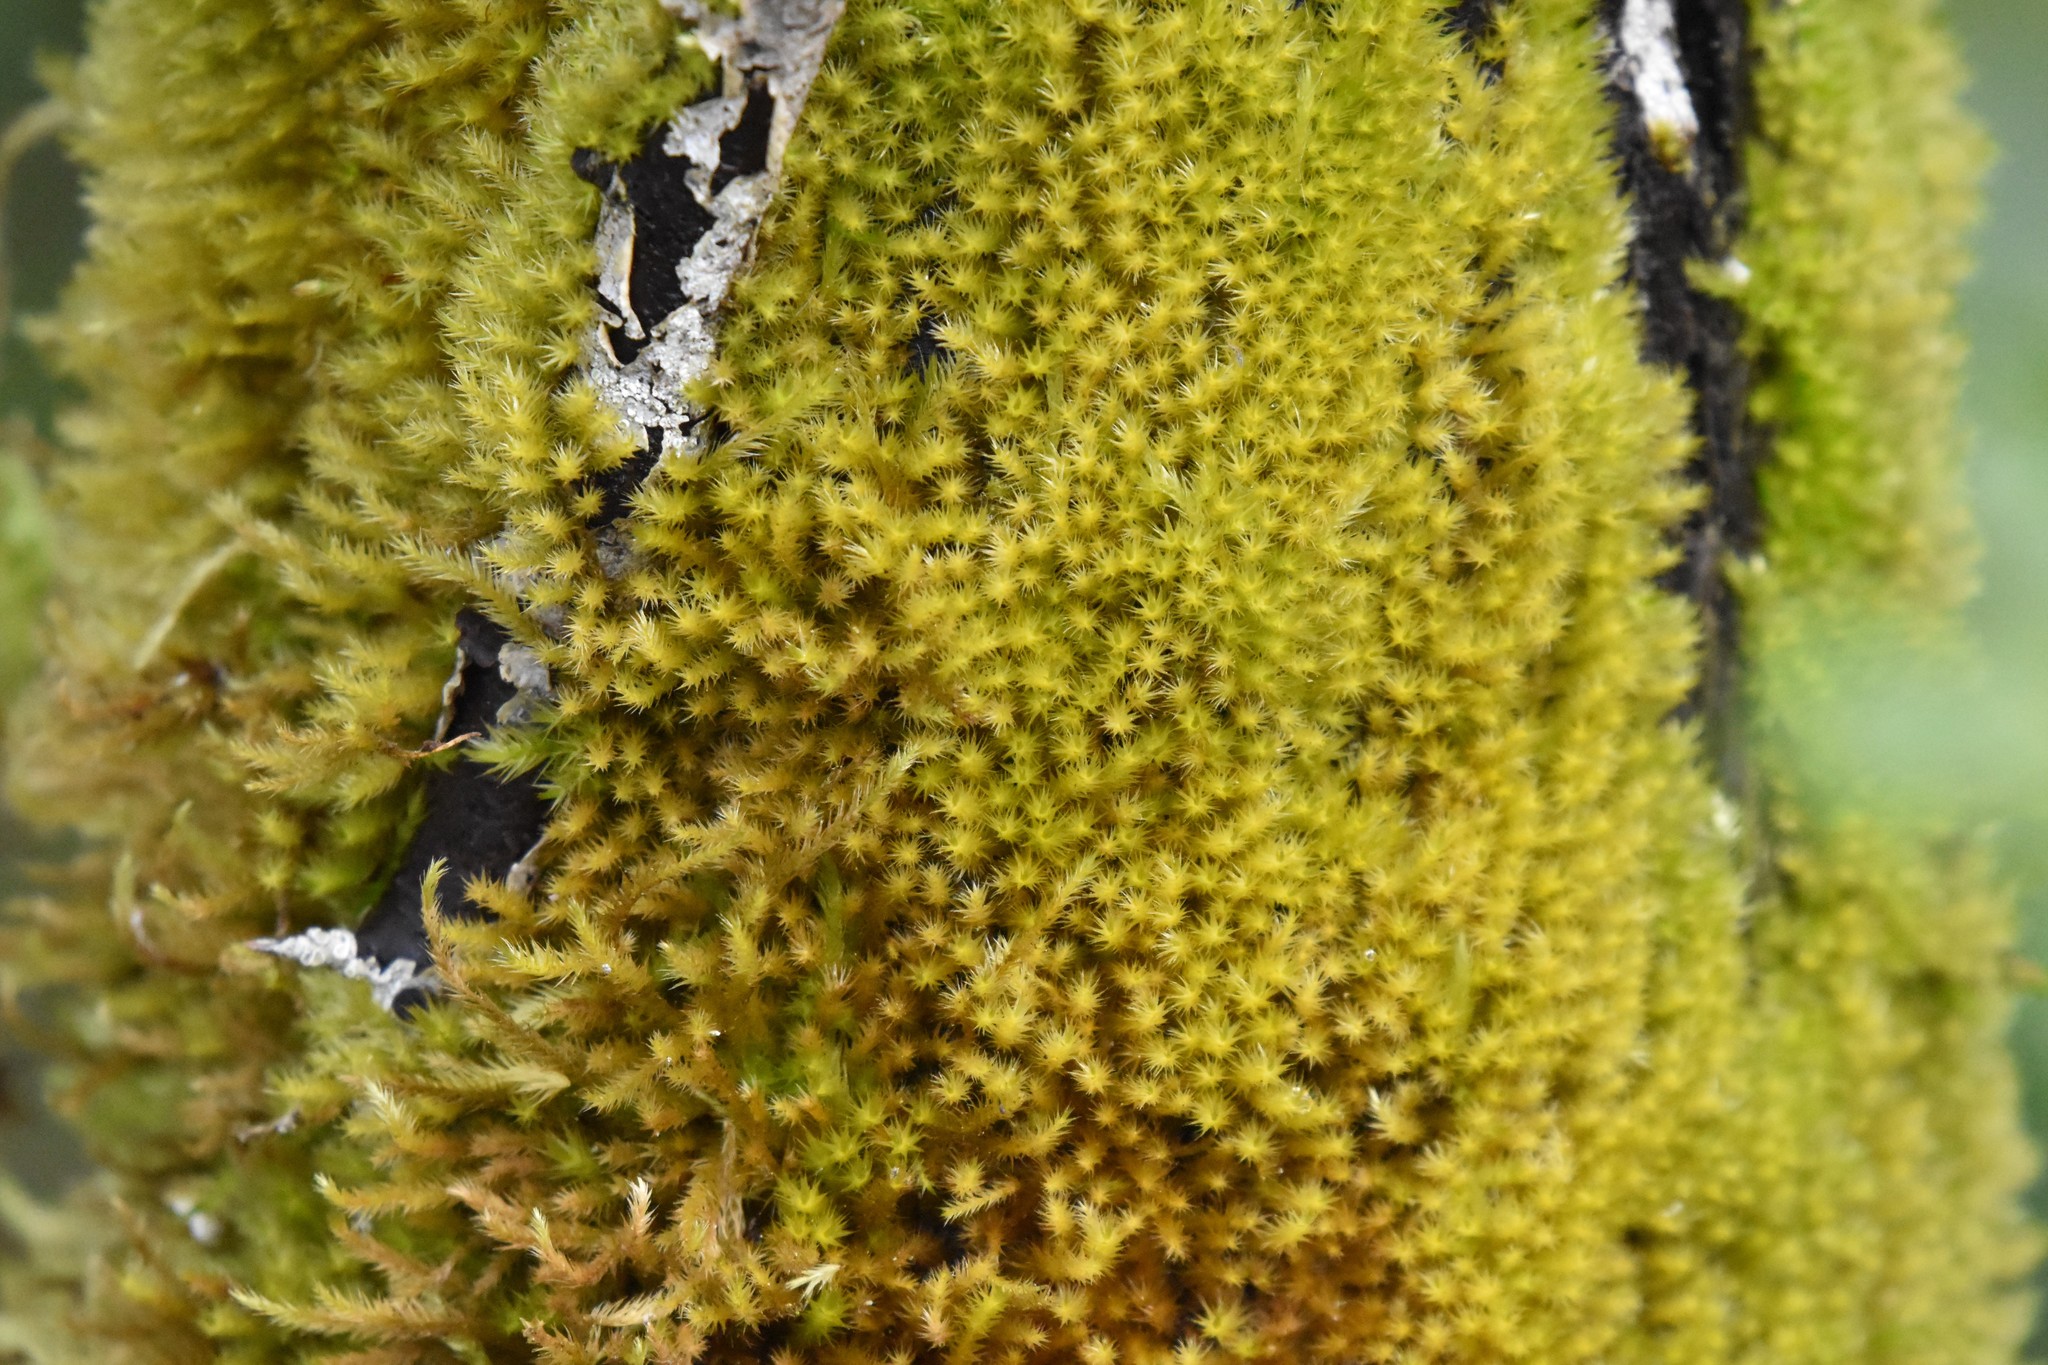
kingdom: Plantae
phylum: Bryophyta
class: Bryopsida
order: Hypnales
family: Brachytheciaceae
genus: Homalothecium
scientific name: Homalothecium fulgescens
